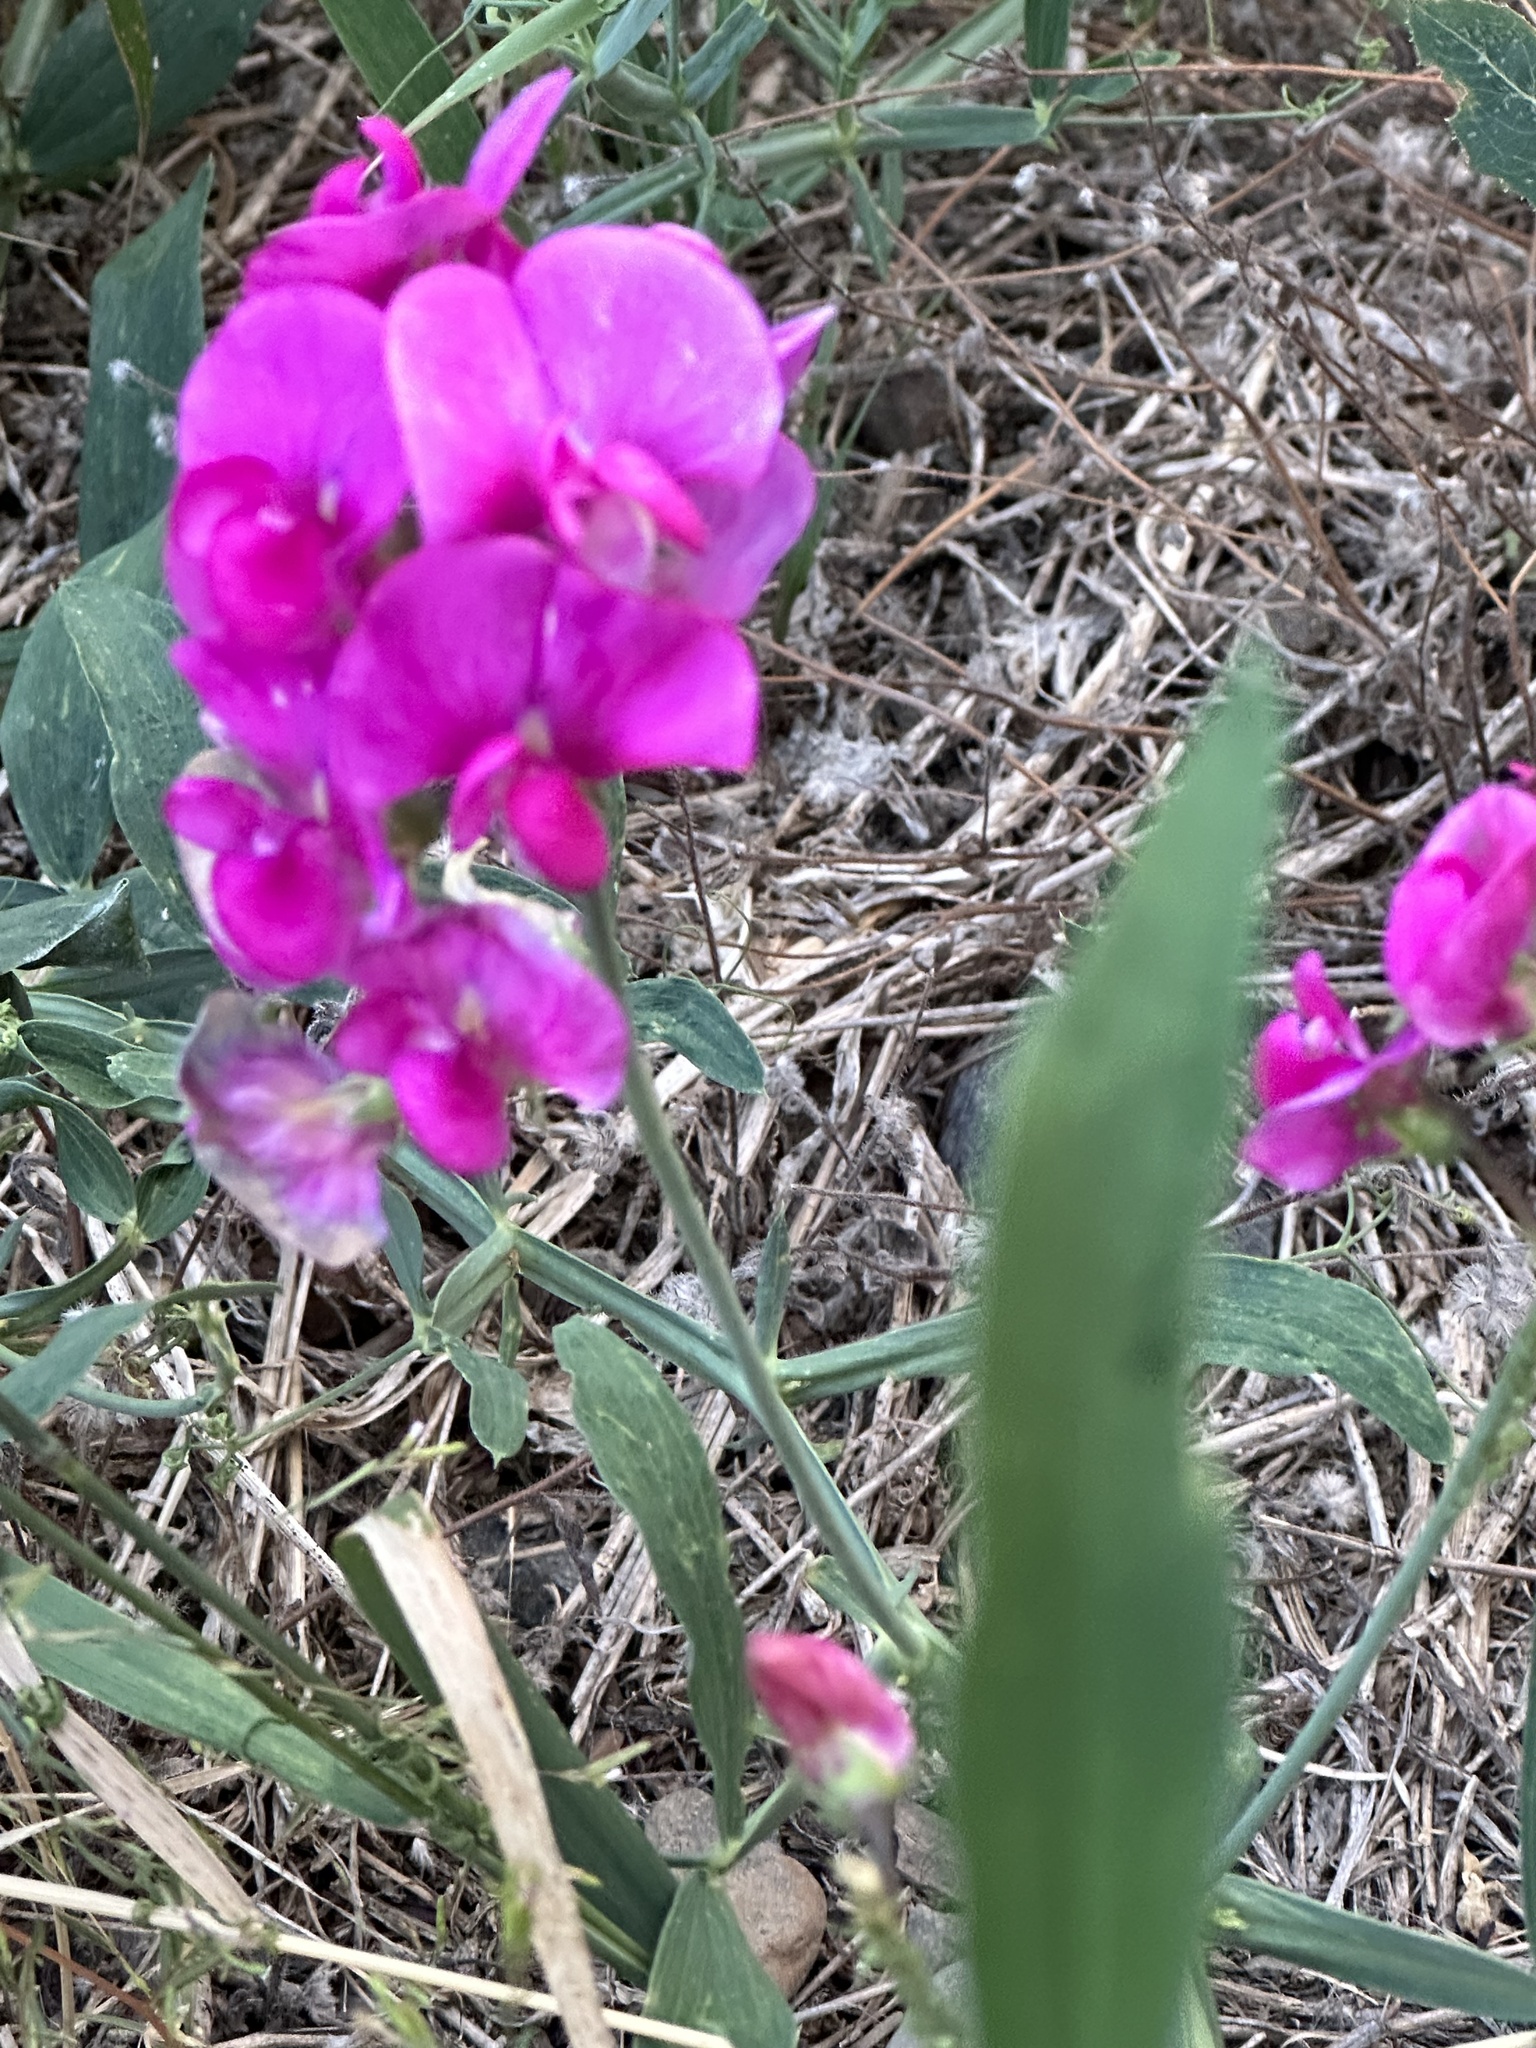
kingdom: Plantae
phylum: Tracheophyta
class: Magnoliopsida
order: Fabales
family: Fabaceae
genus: Lathyrus
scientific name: Lathyrus latifolius
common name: Perennial pea
